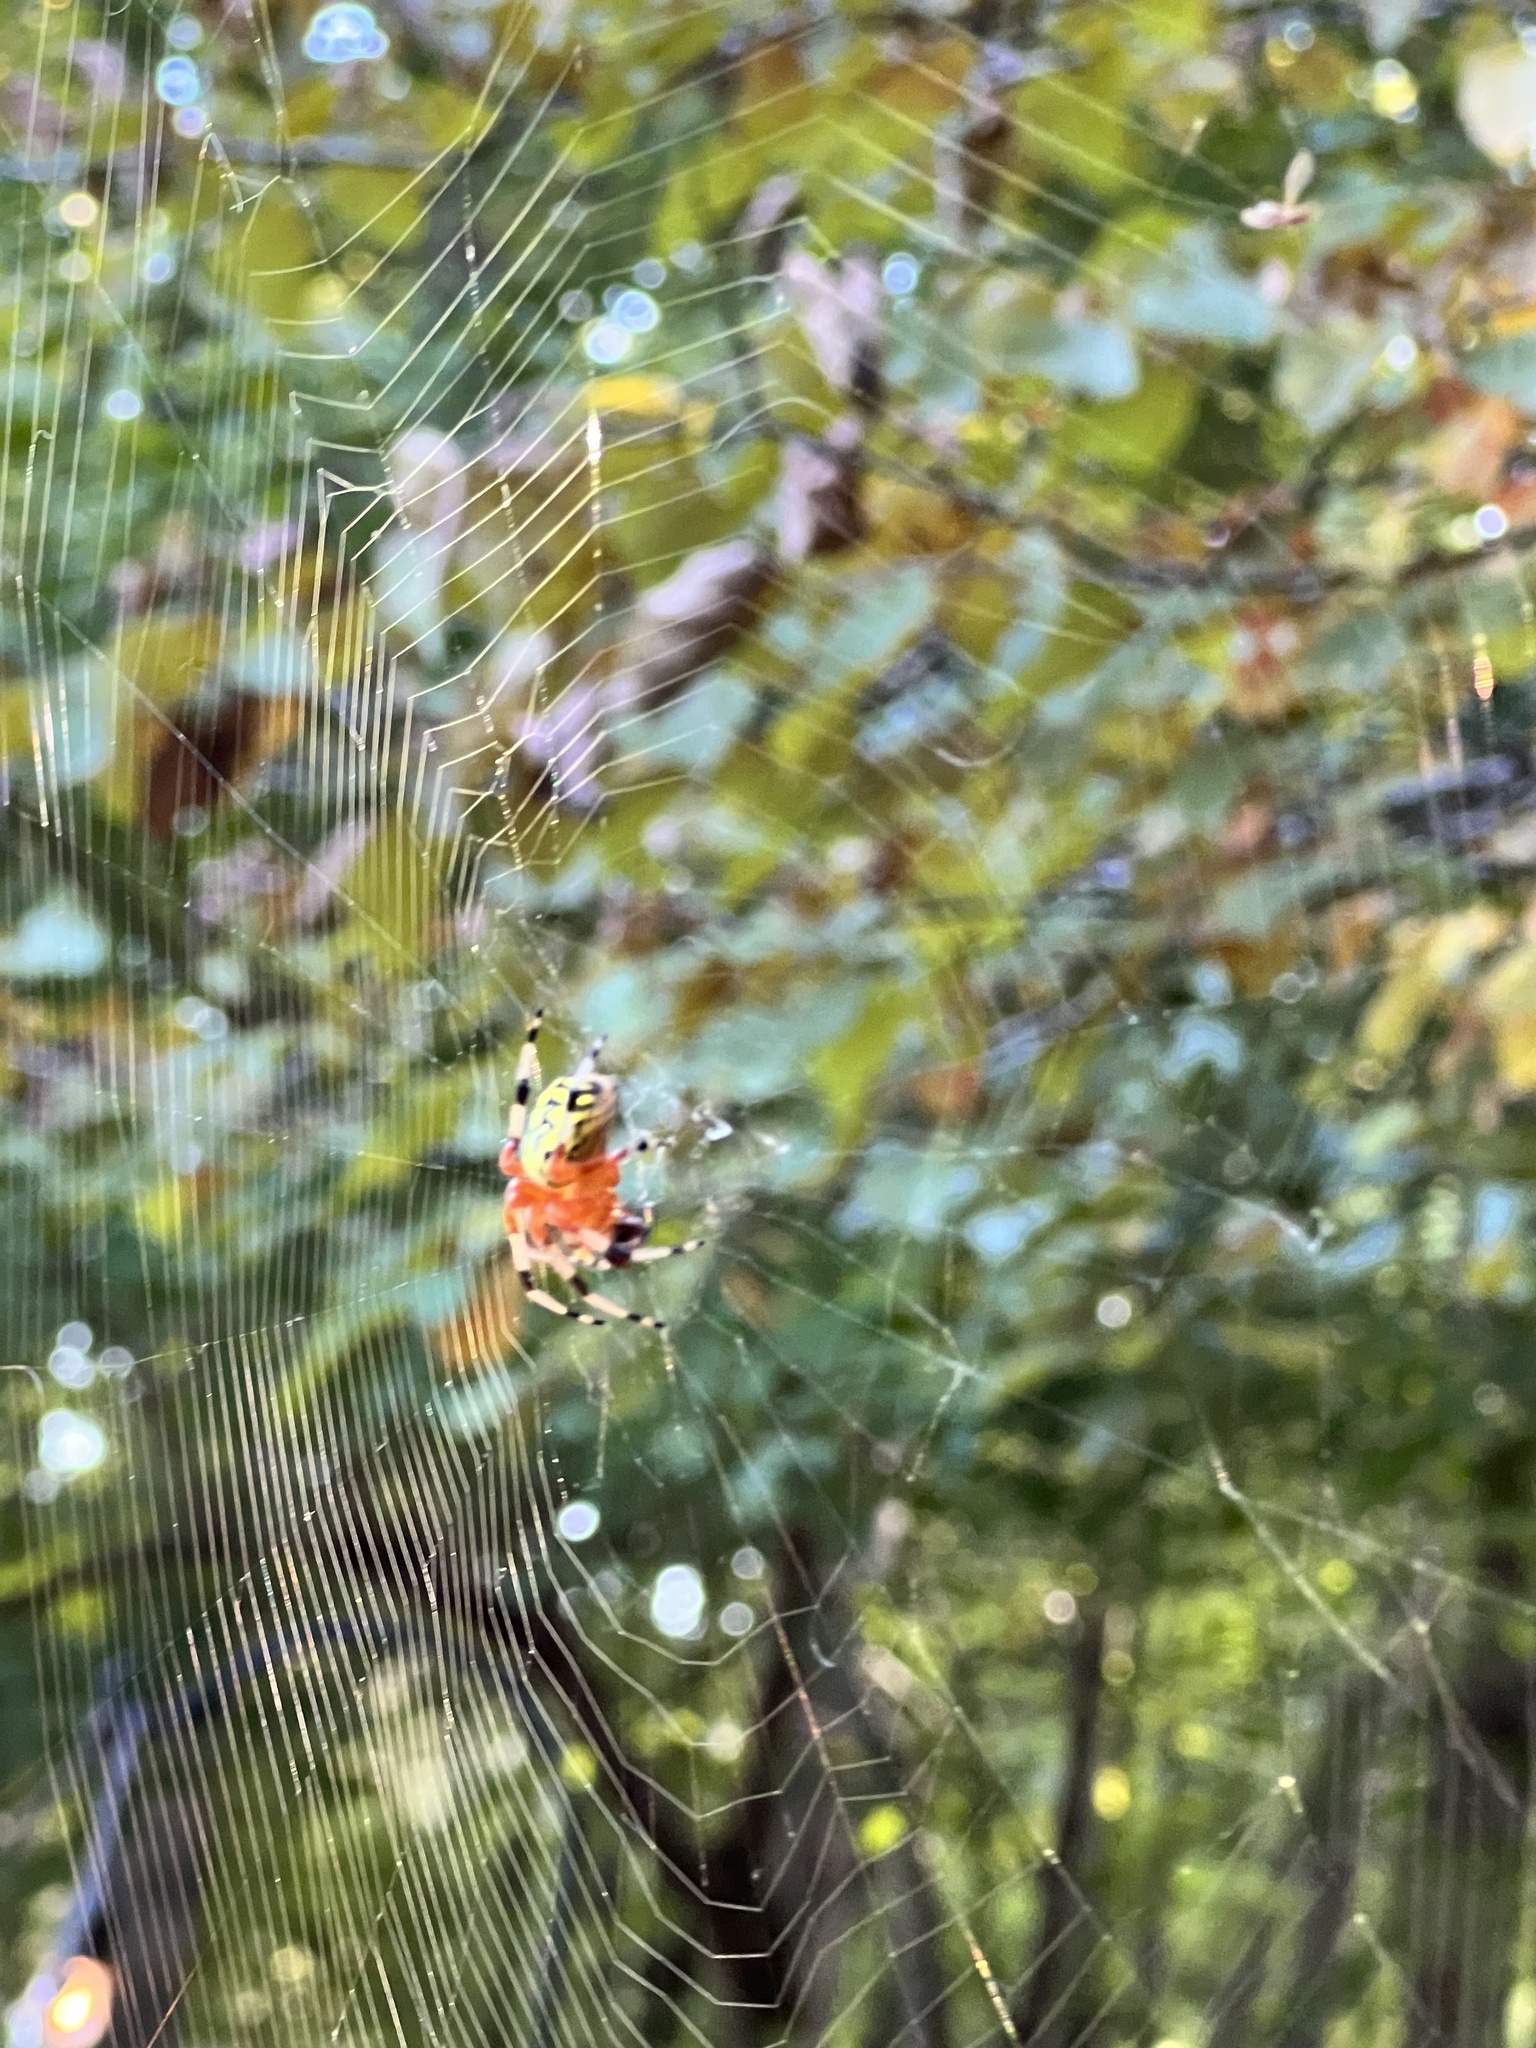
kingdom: Animalia
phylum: Arthropoda
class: Arachnida
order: Araneae
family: Araneidae
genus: Araneus
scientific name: Araneus marmoreus
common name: Marbled orbweaver
